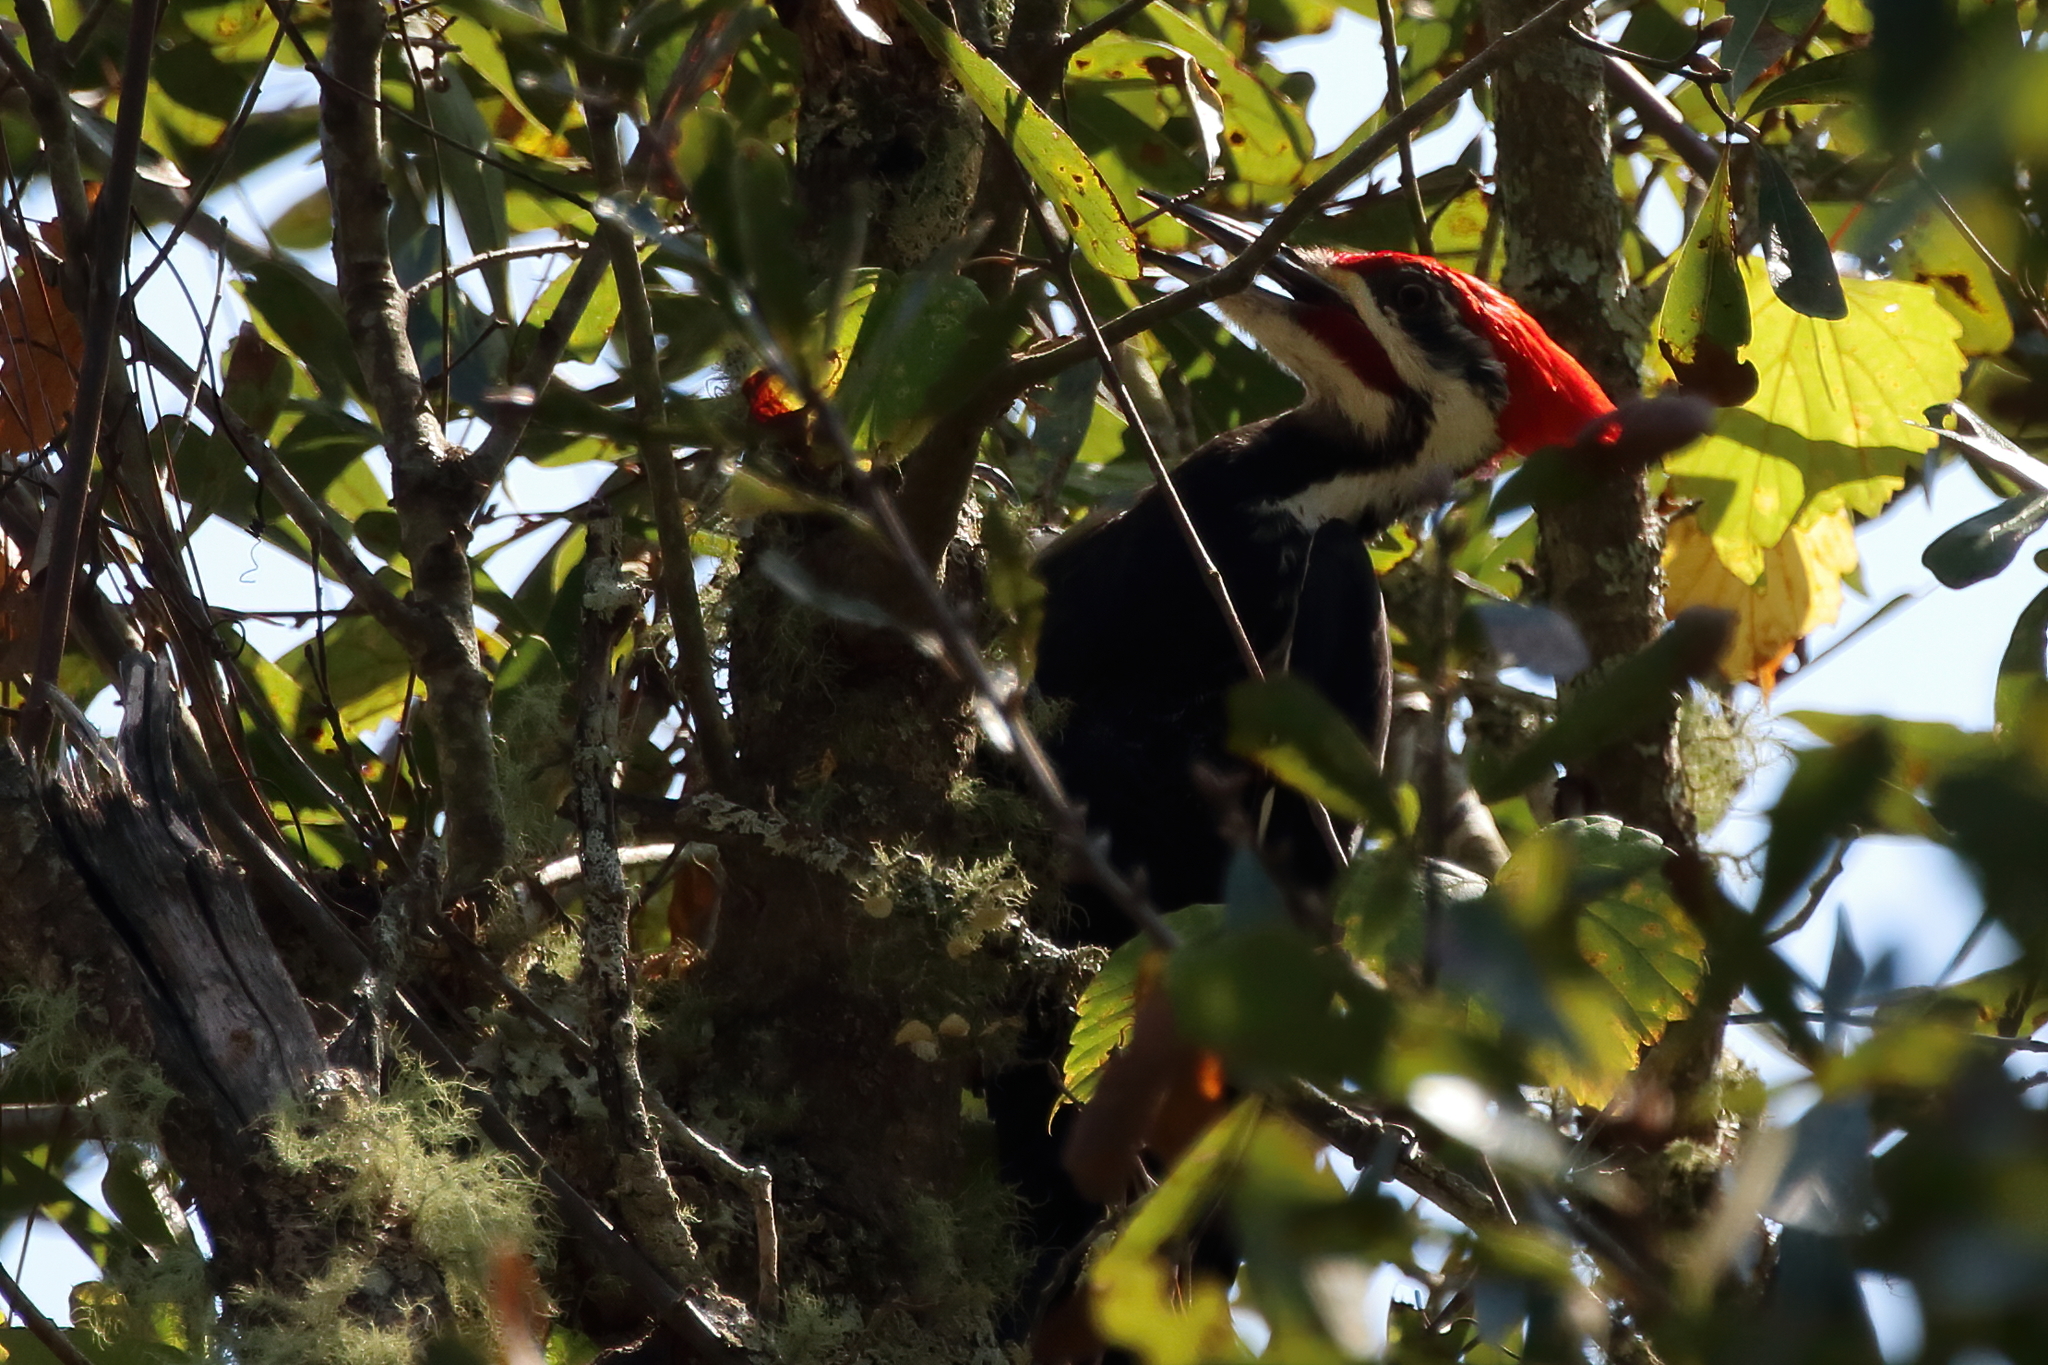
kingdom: Animalia
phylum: Chordata
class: Aves
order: Piciformes
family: Picidae
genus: Dryocopus
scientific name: Dryocopus pileatus
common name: Pileated woodpecker
